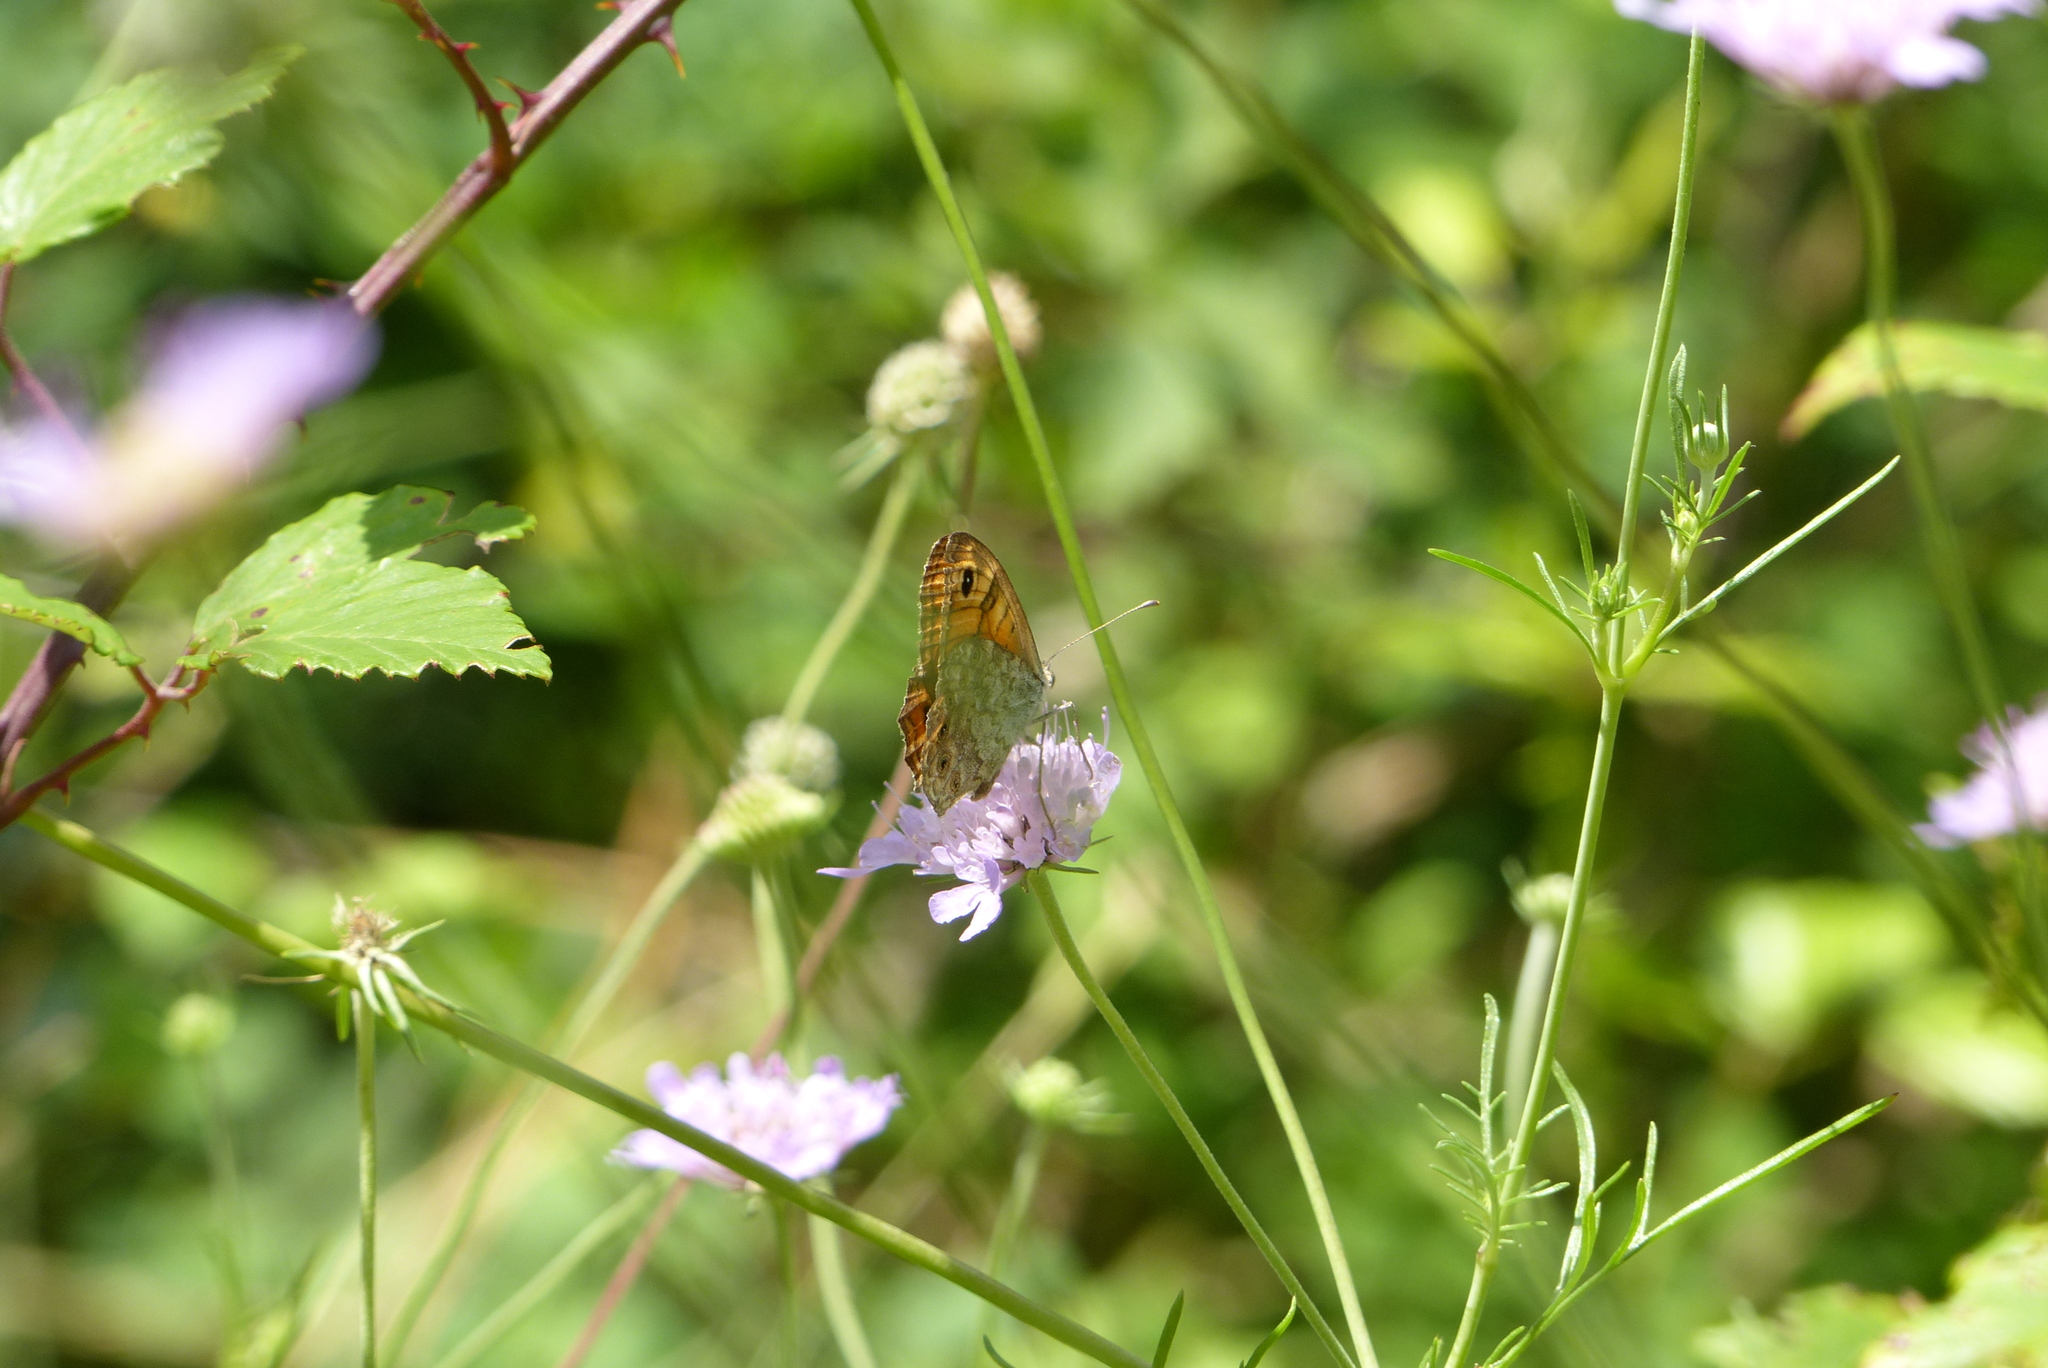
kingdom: Animalia
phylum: Arthropoda
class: Insecta
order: Lepidoptera
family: Nymphalidae
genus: Pararge
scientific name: Pararge Lasiommata megera
